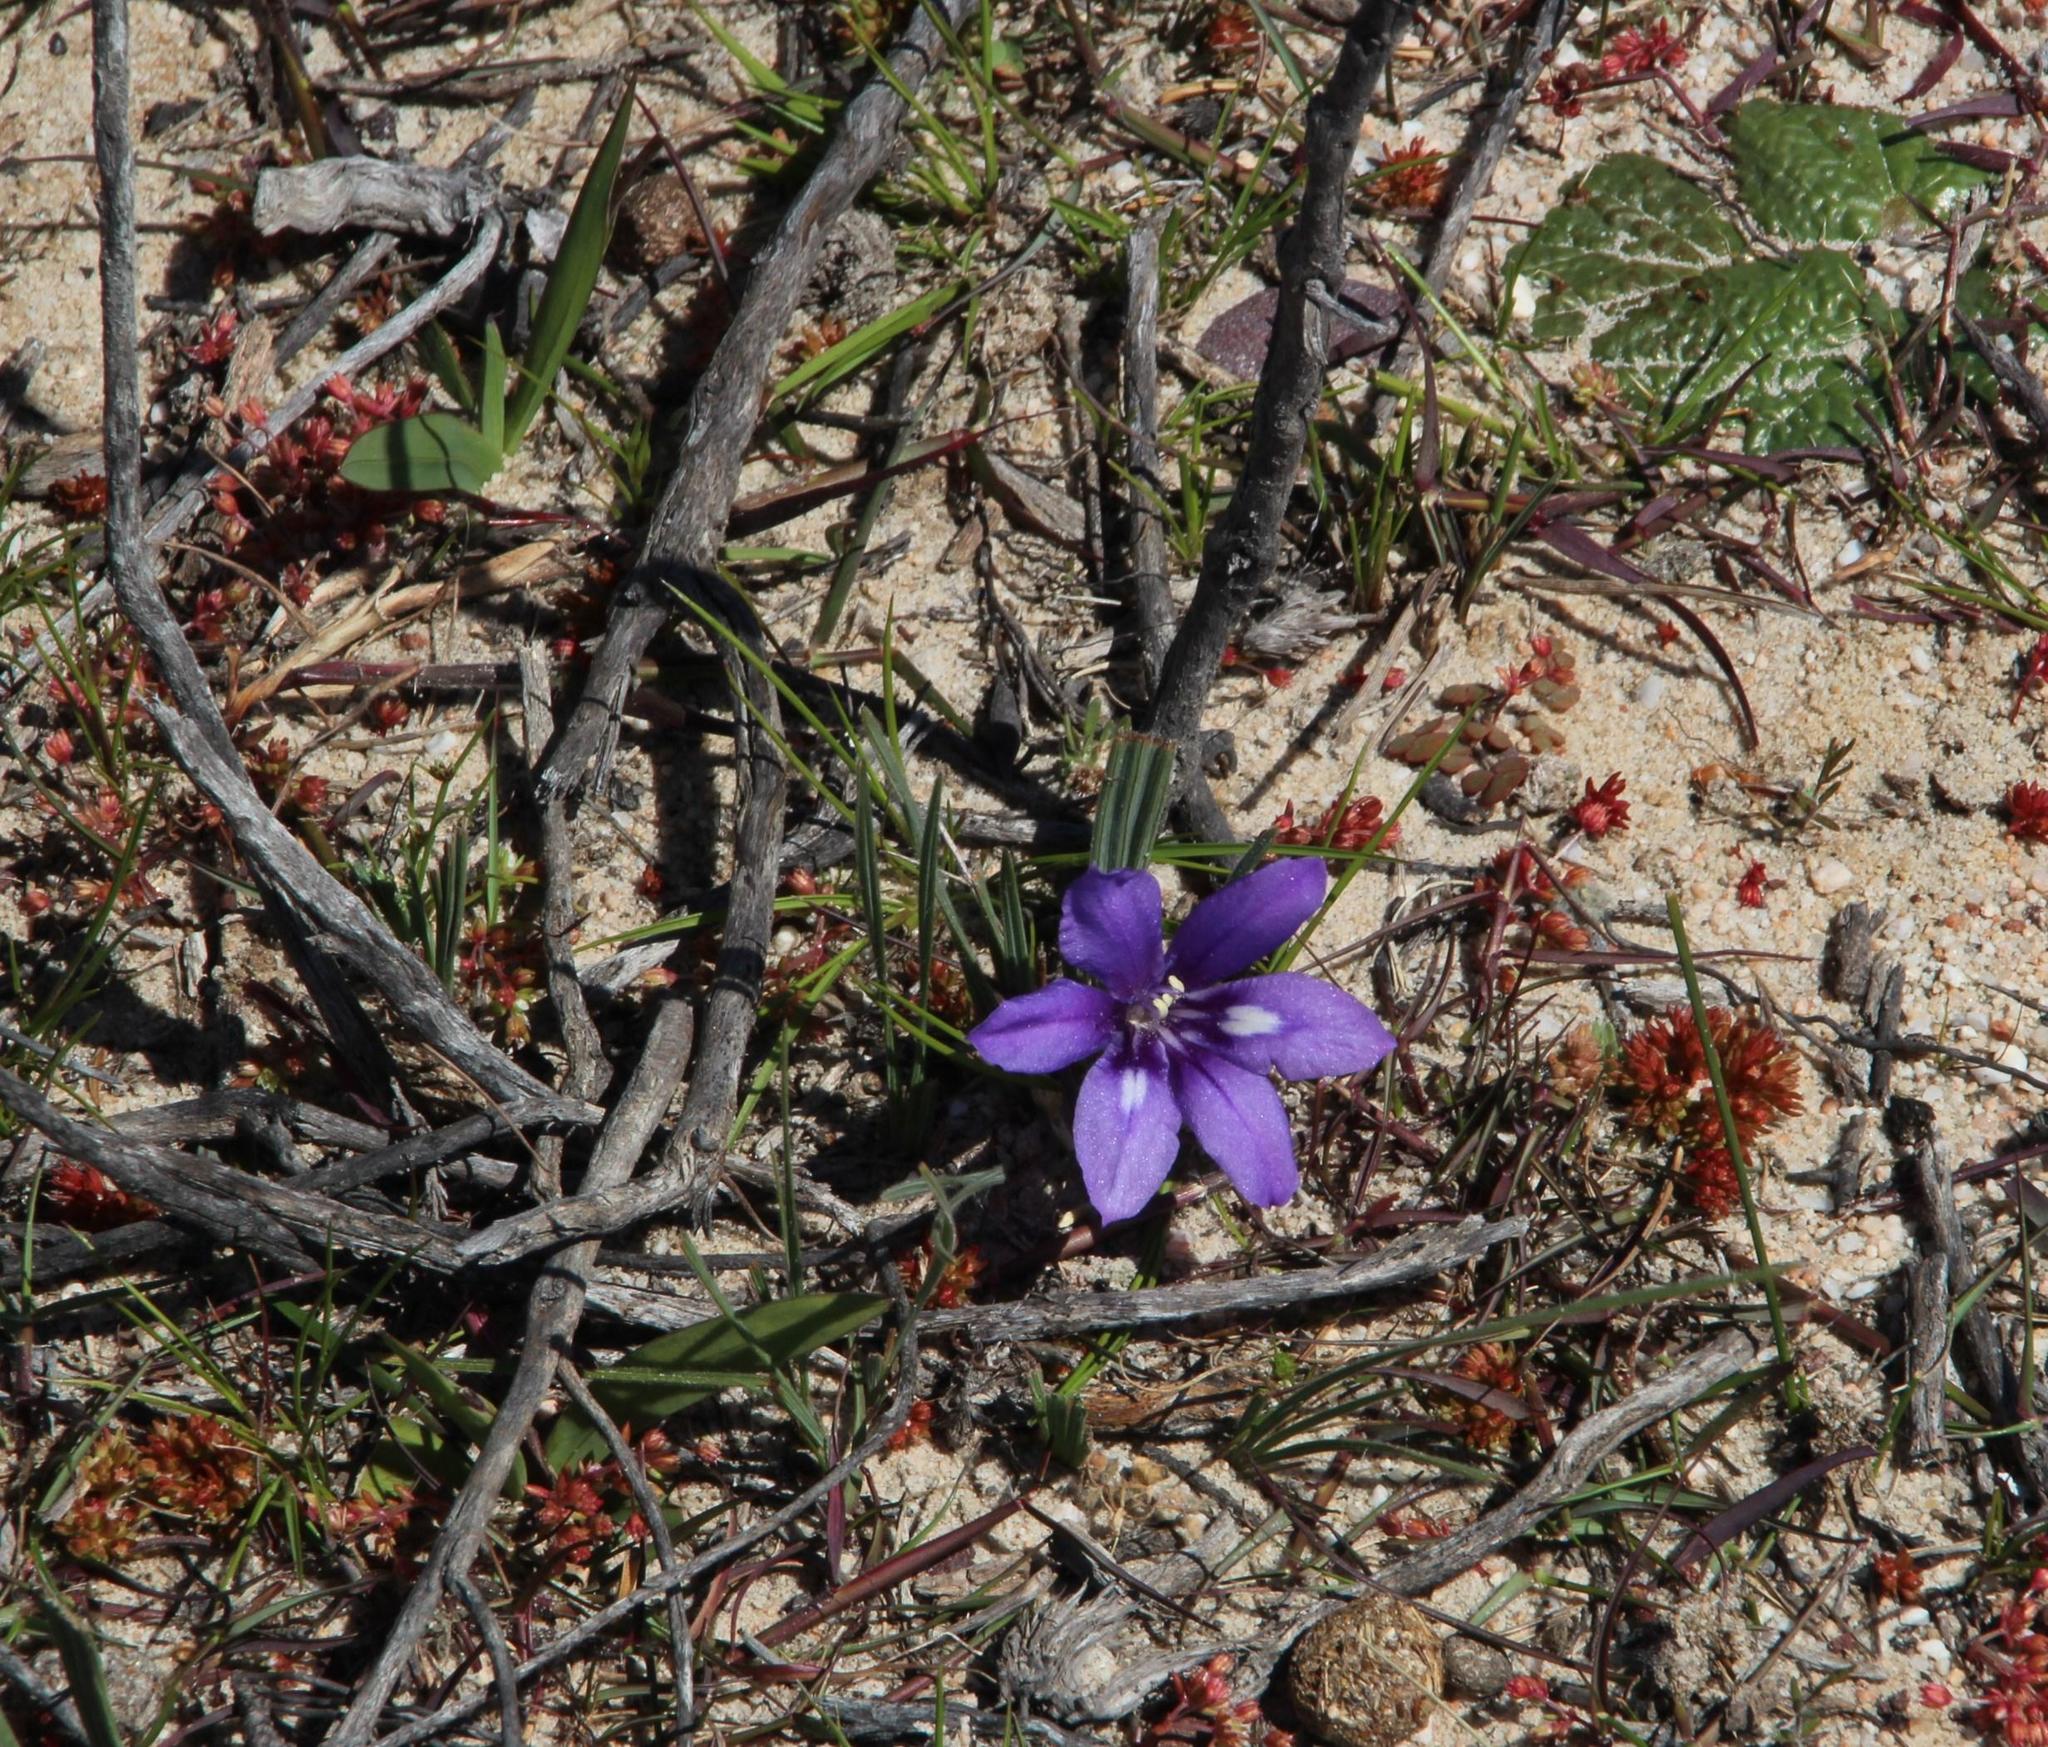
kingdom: Plantae
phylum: Tracheophyta
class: Liliopsida
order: Asparagales
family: Iridaceae
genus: Babiana
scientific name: Babiana ambigua
